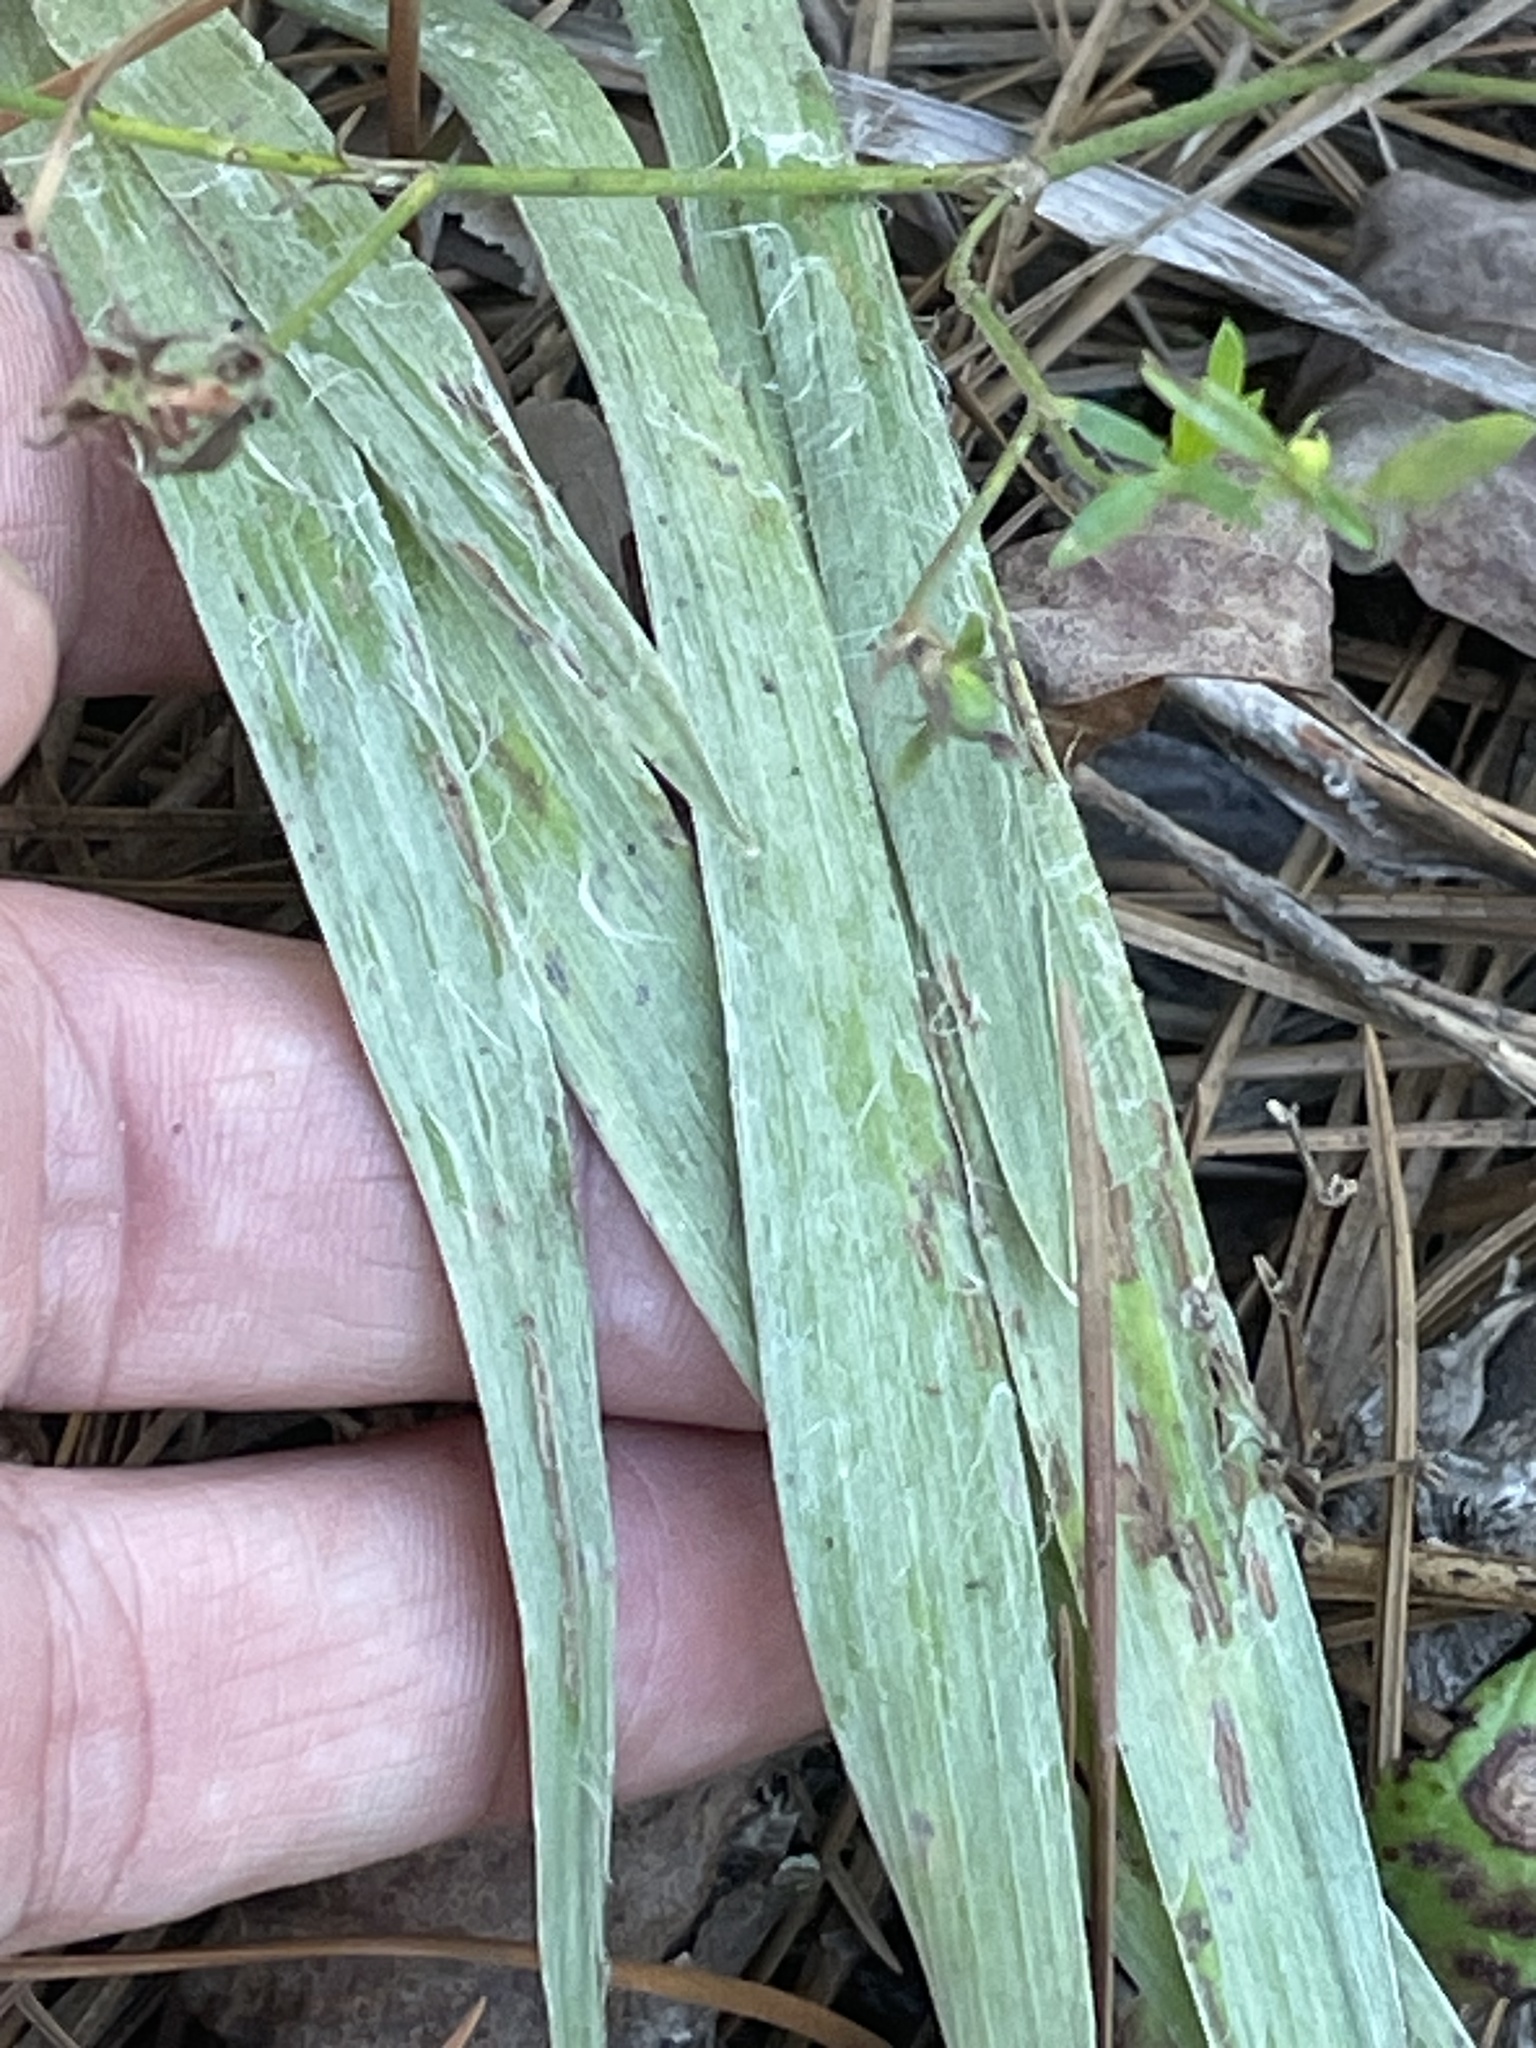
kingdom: Plantae
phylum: Tracheophyta
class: Magnoliopsida
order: Asterales
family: Asteraceae
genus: Pityopsis
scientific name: Pityopsis aspera
